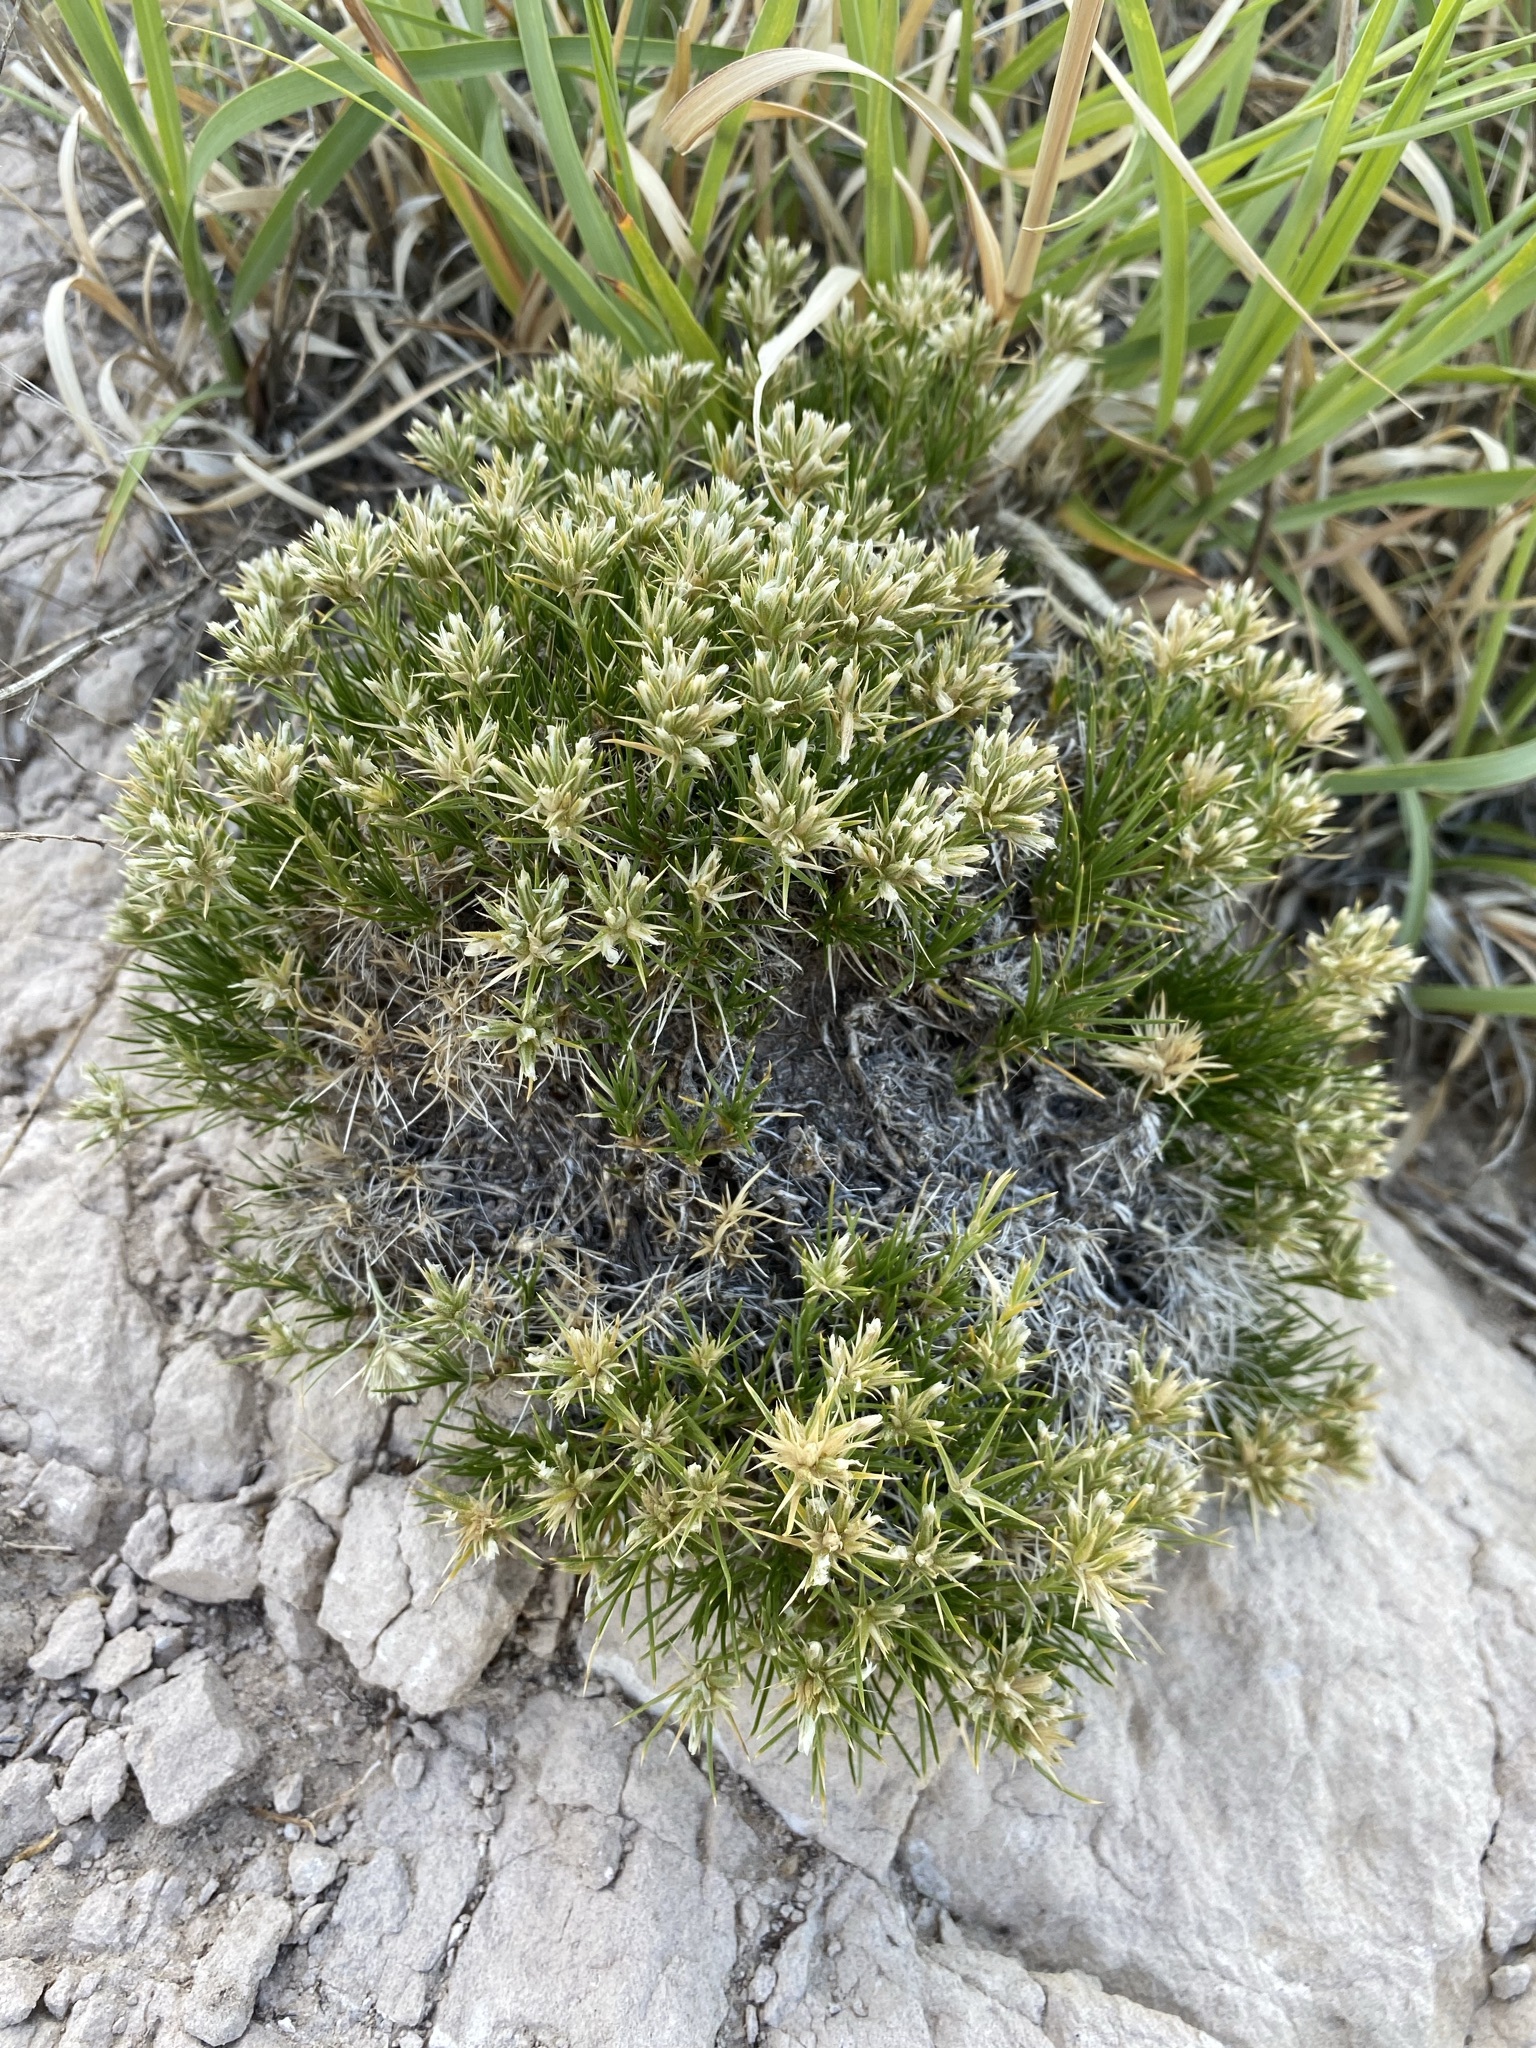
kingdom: Plantae
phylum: Tracheophyta
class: Magnoliopsida
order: Caryophyllales
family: Caryophyllaceae
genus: Eremogone
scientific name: Eremogone hookeri
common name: Hooker's sandwort
